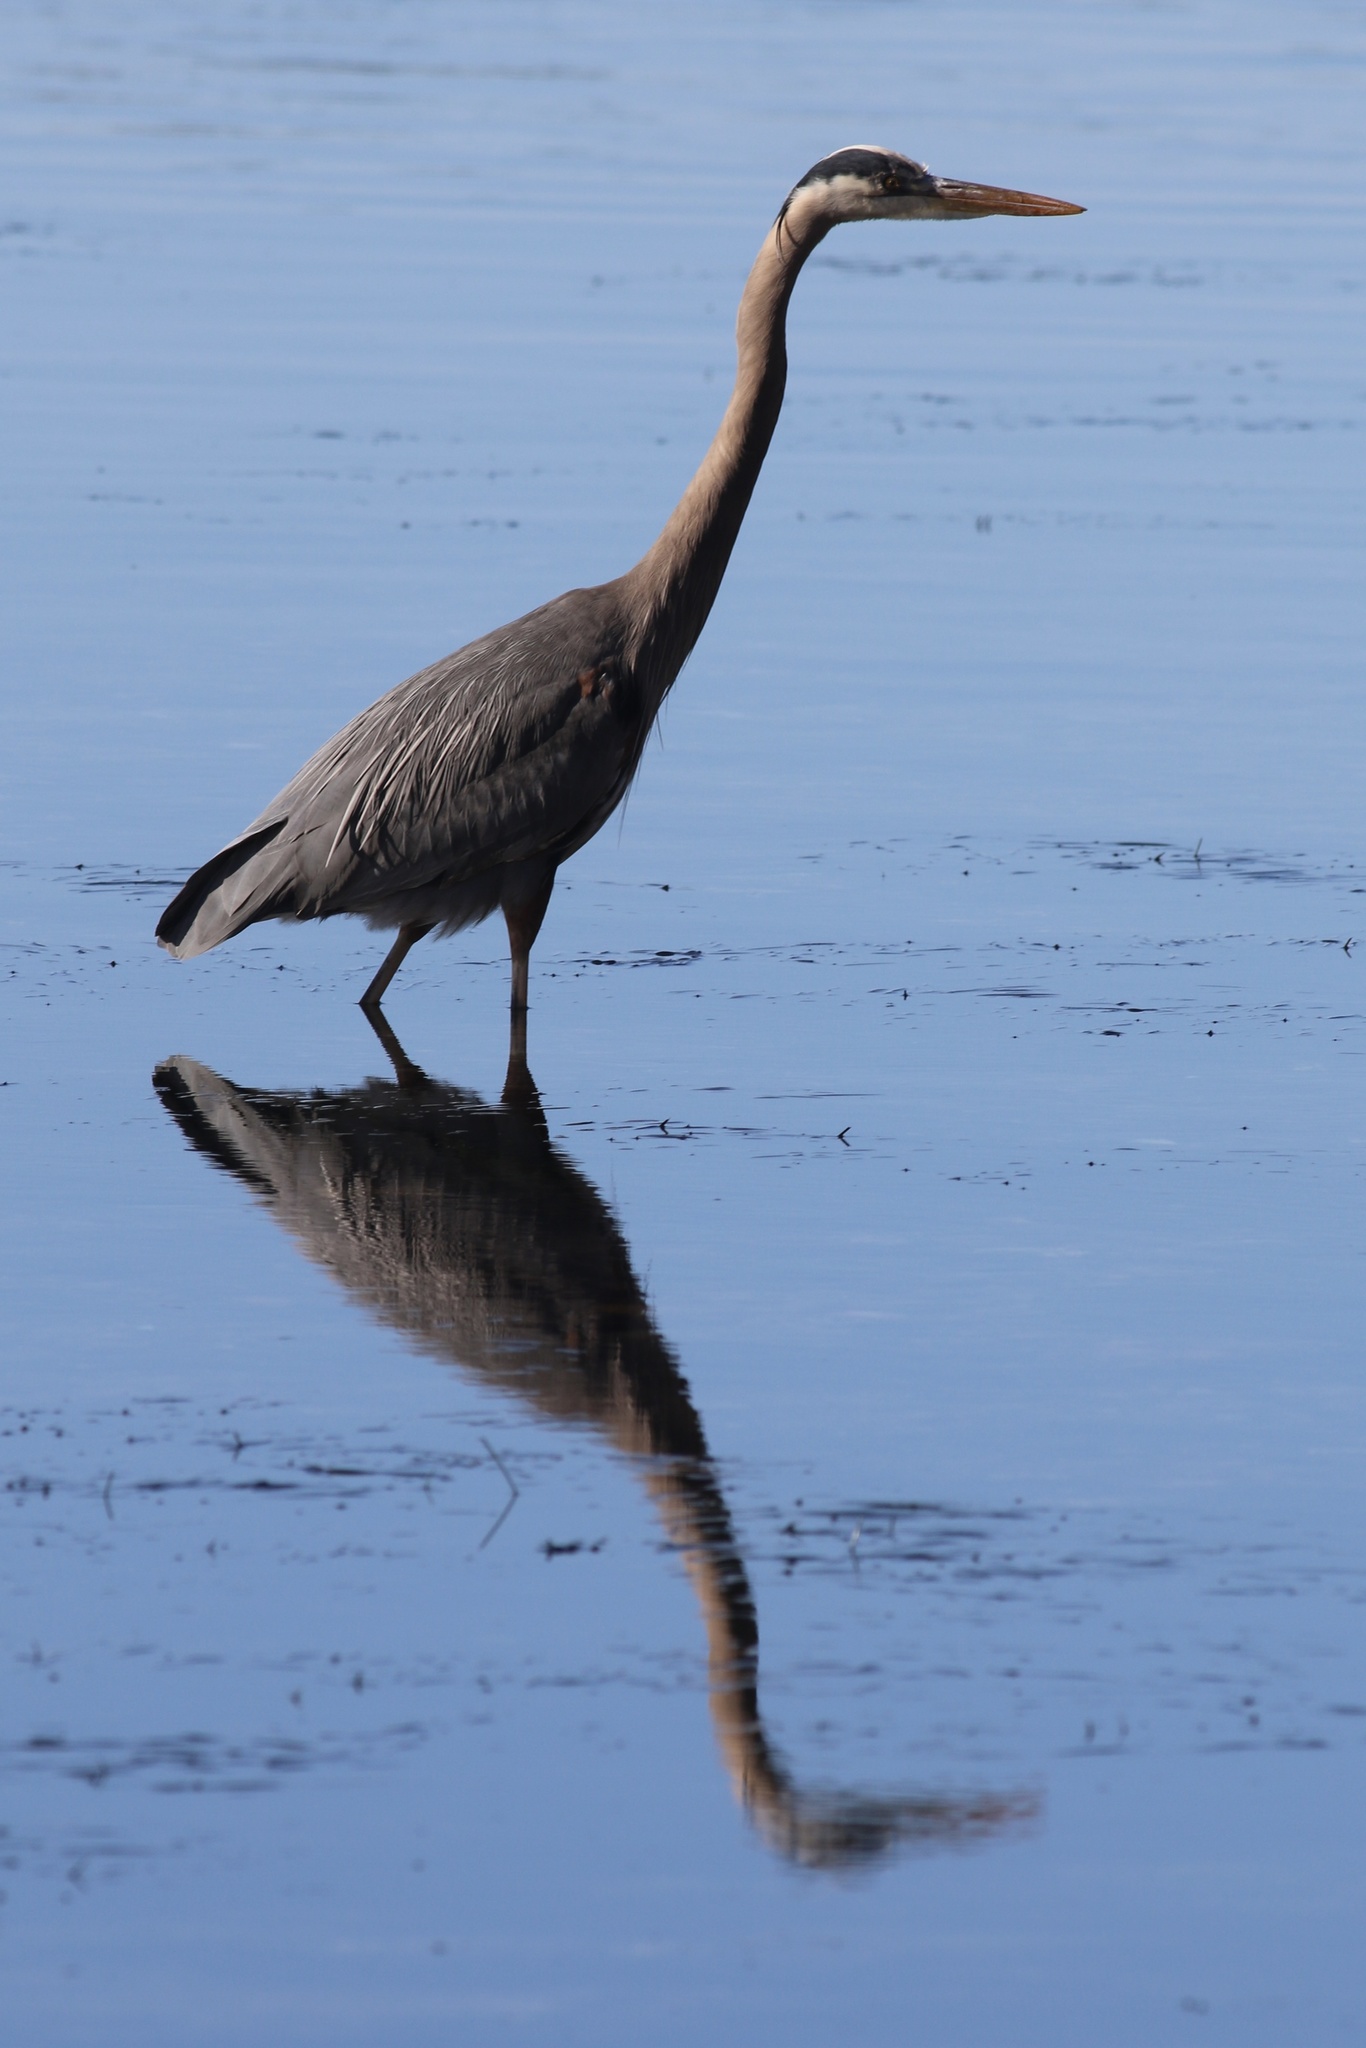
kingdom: Animalia
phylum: Chordata
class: Aves
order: Pelecaniformes
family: Ardeidae
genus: Ardea
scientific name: Ardea herodias
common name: Great blue heron
